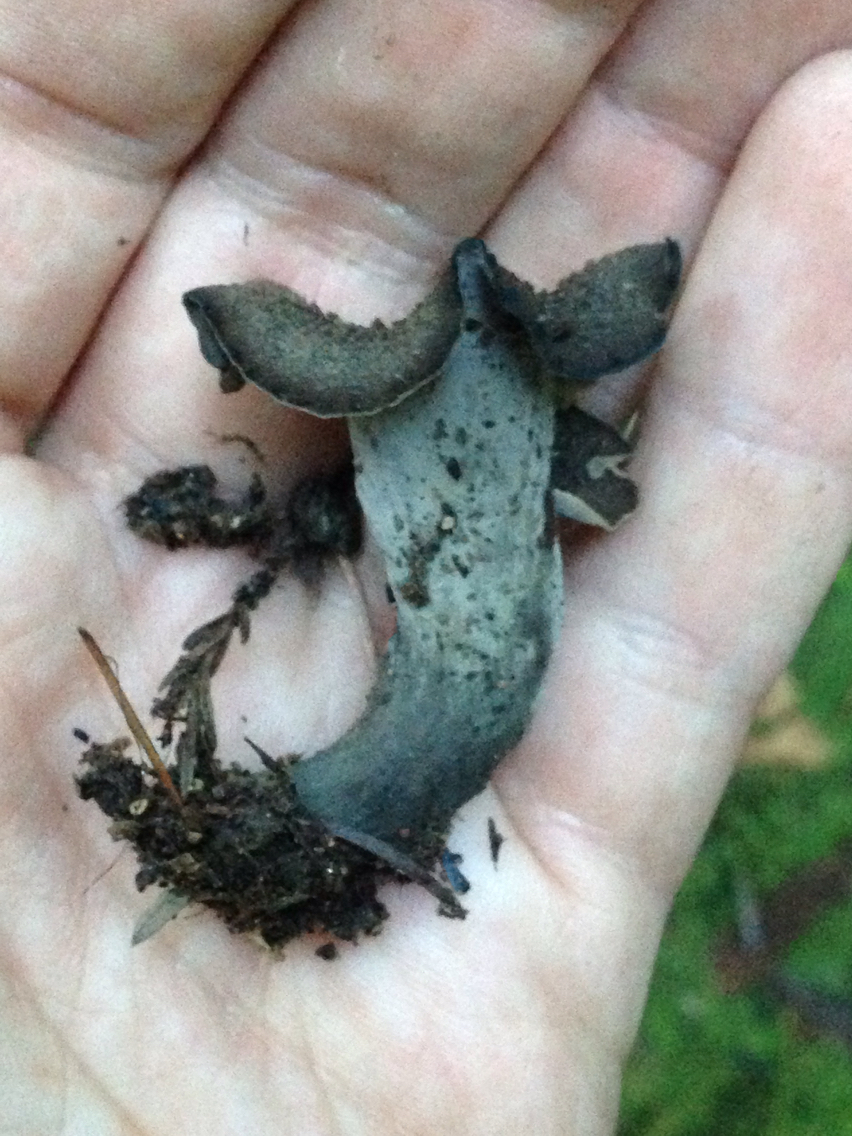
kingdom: Fungi
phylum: Basidiomycota
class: Agaricomycetes
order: Cantharellales
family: Hydnaceae
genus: Craterellus
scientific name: Craterellus calicornucopioides
